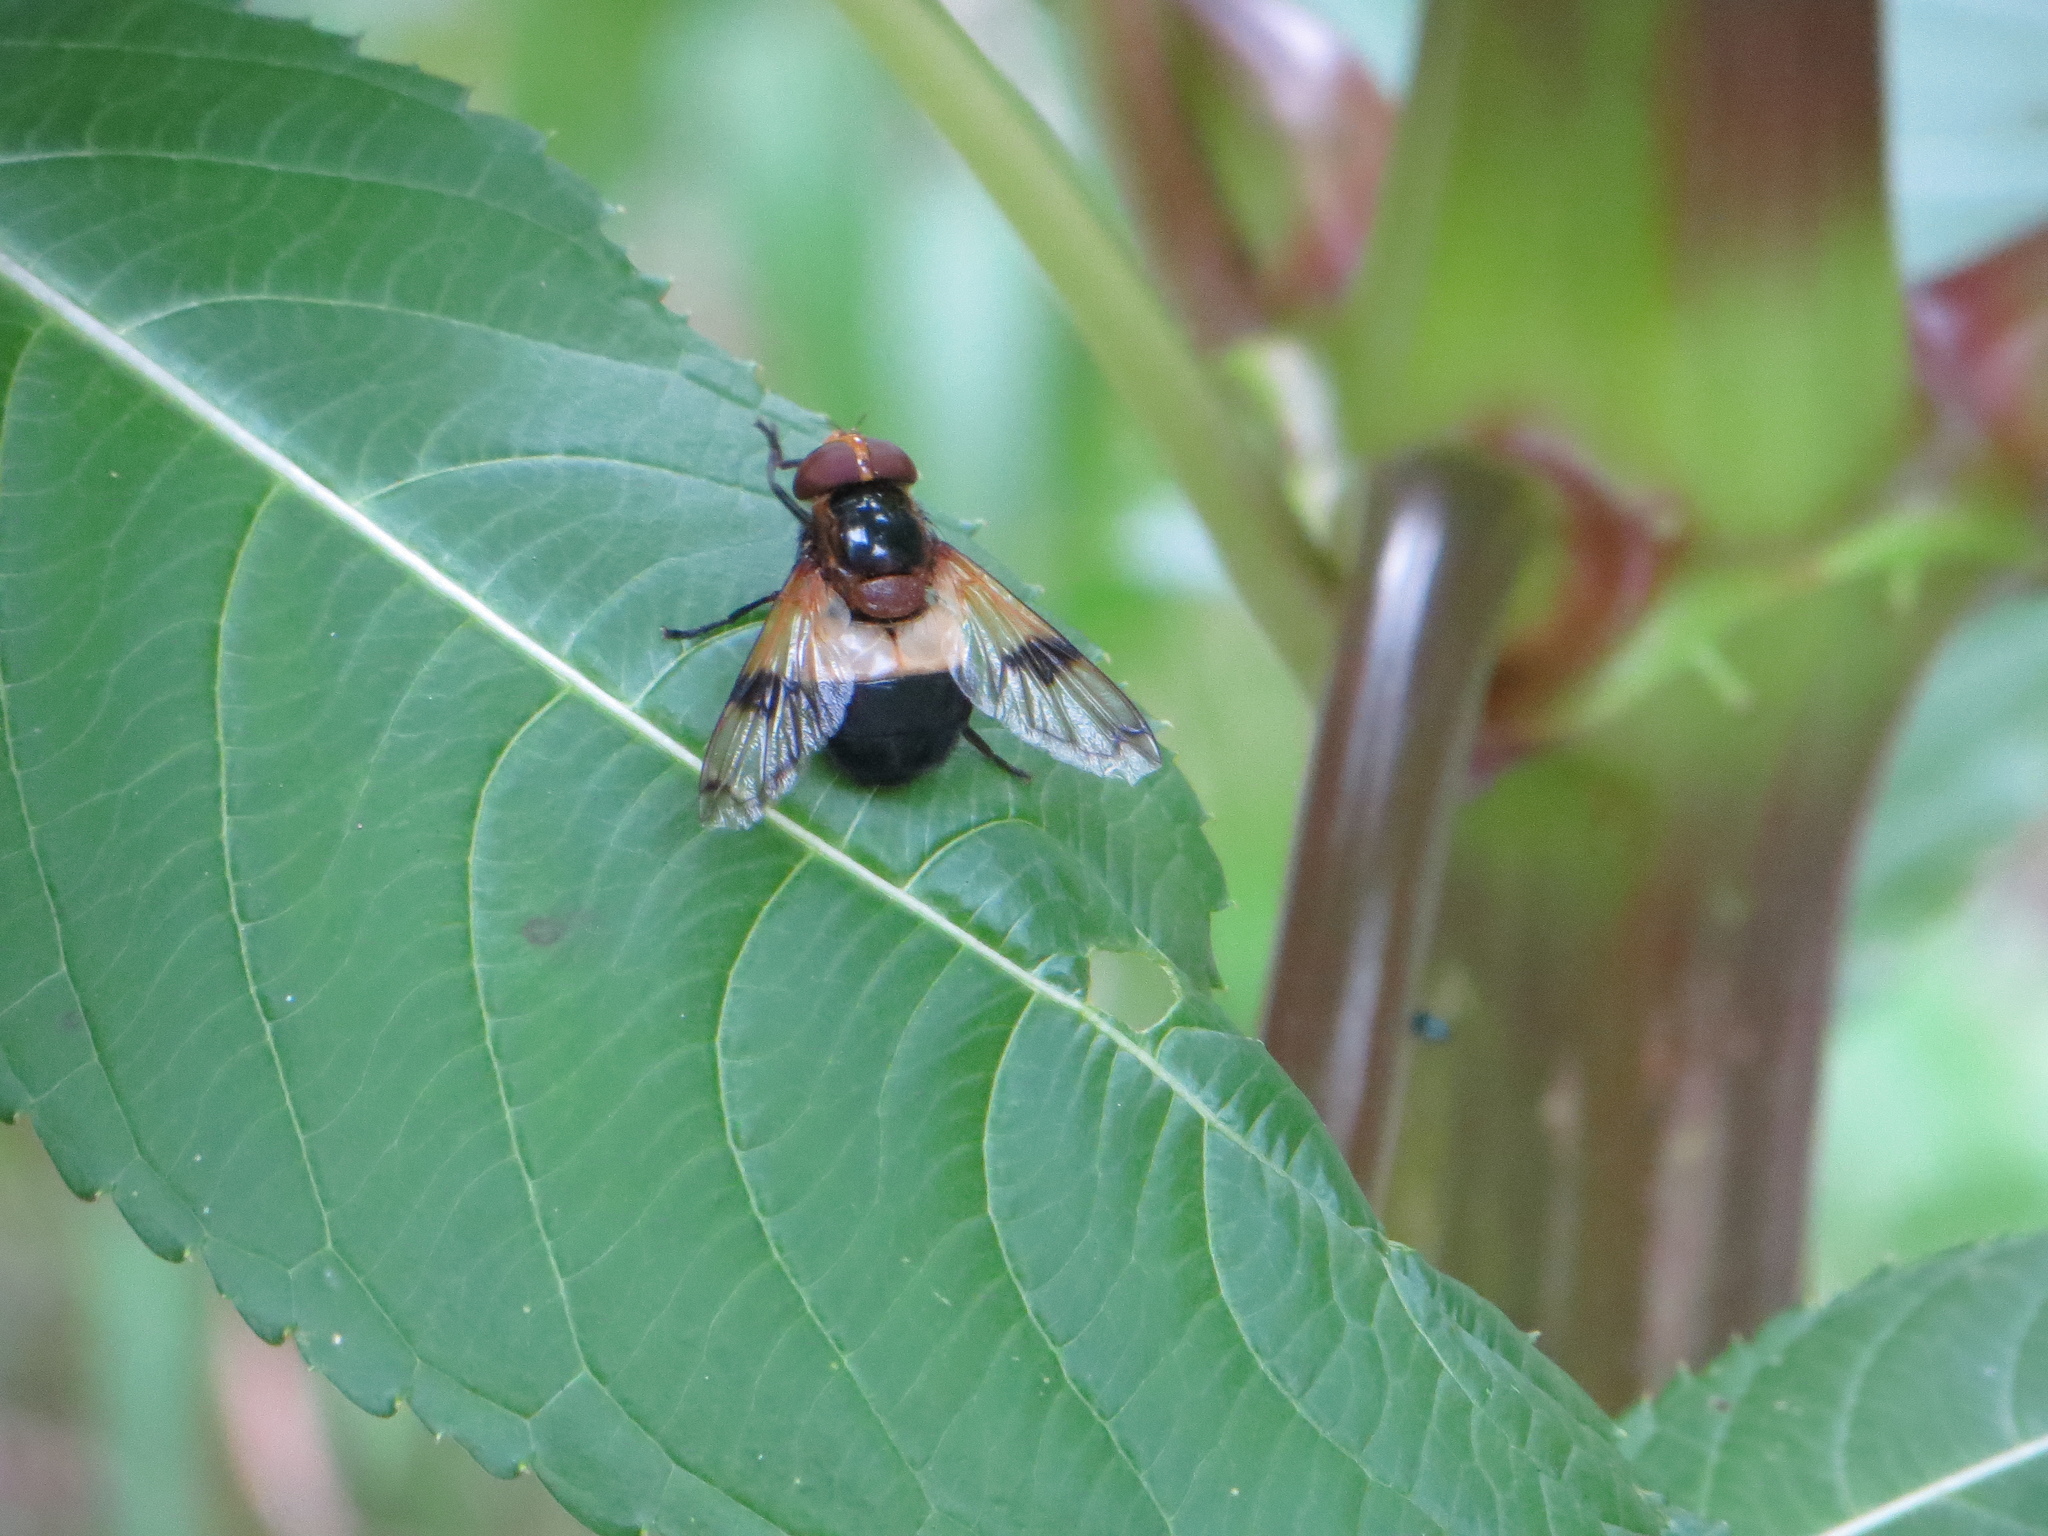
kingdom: Animalia
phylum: Arthropoda
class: Insecta
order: Diptera
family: Syrphidae
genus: Volucella
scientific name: Volucella pellucens
